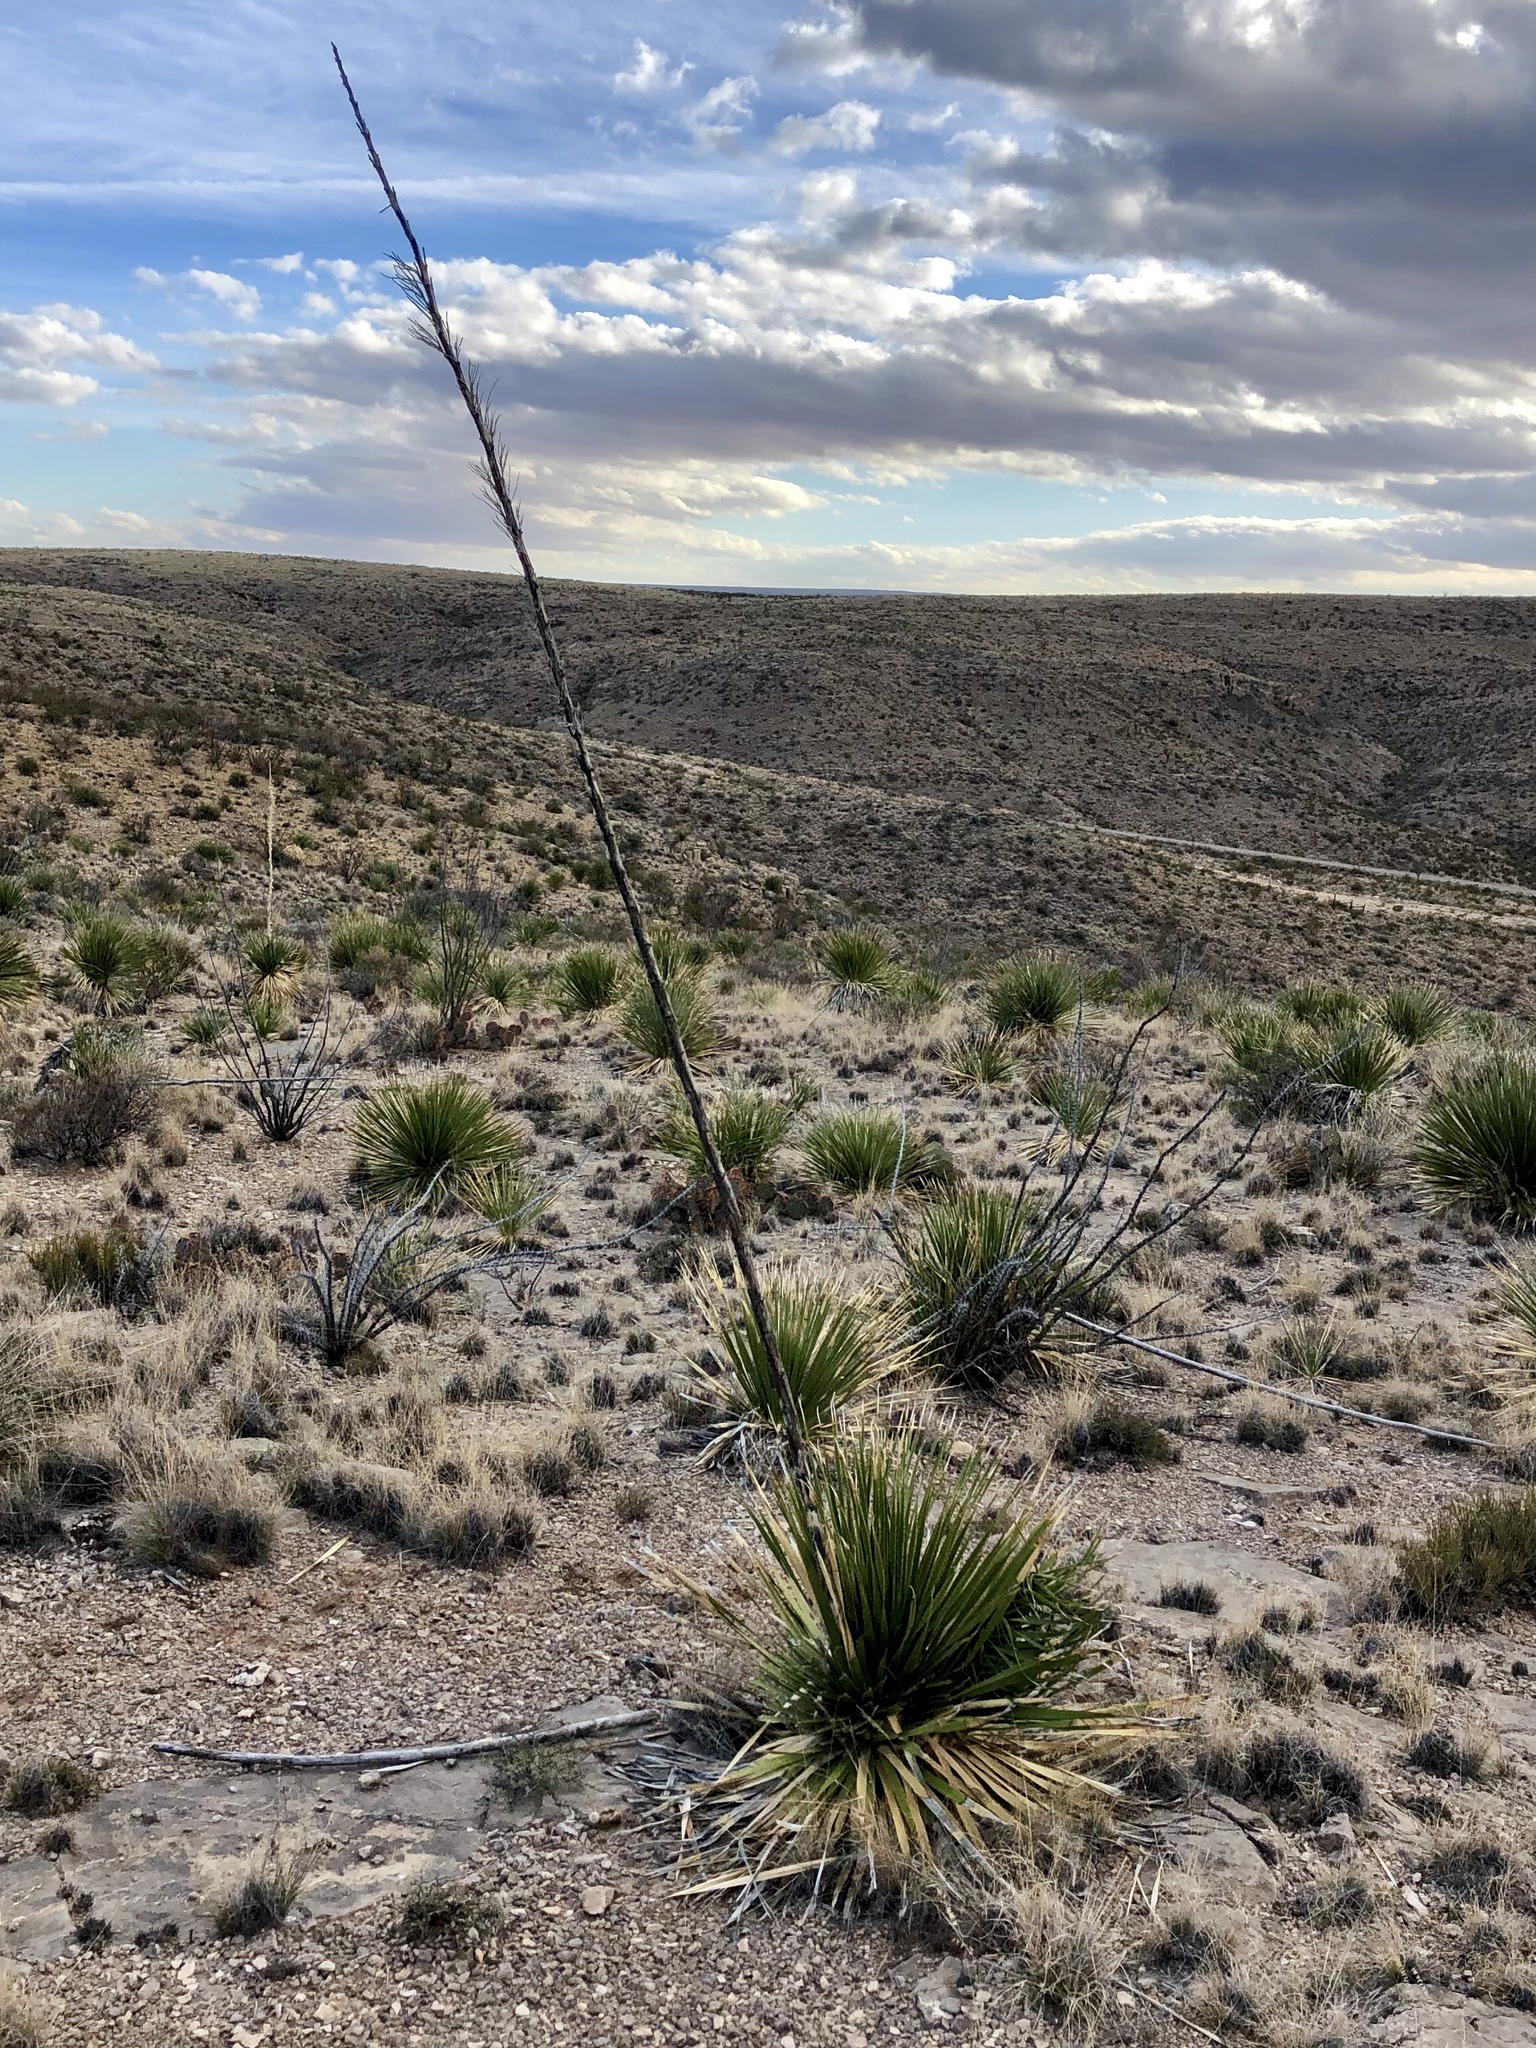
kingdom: Plantae
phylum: Tracheophyta
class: Liliopsida
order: Asparagales
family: Asparagaceae
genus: Yucca
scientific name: Yucca elata
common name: Palmella
